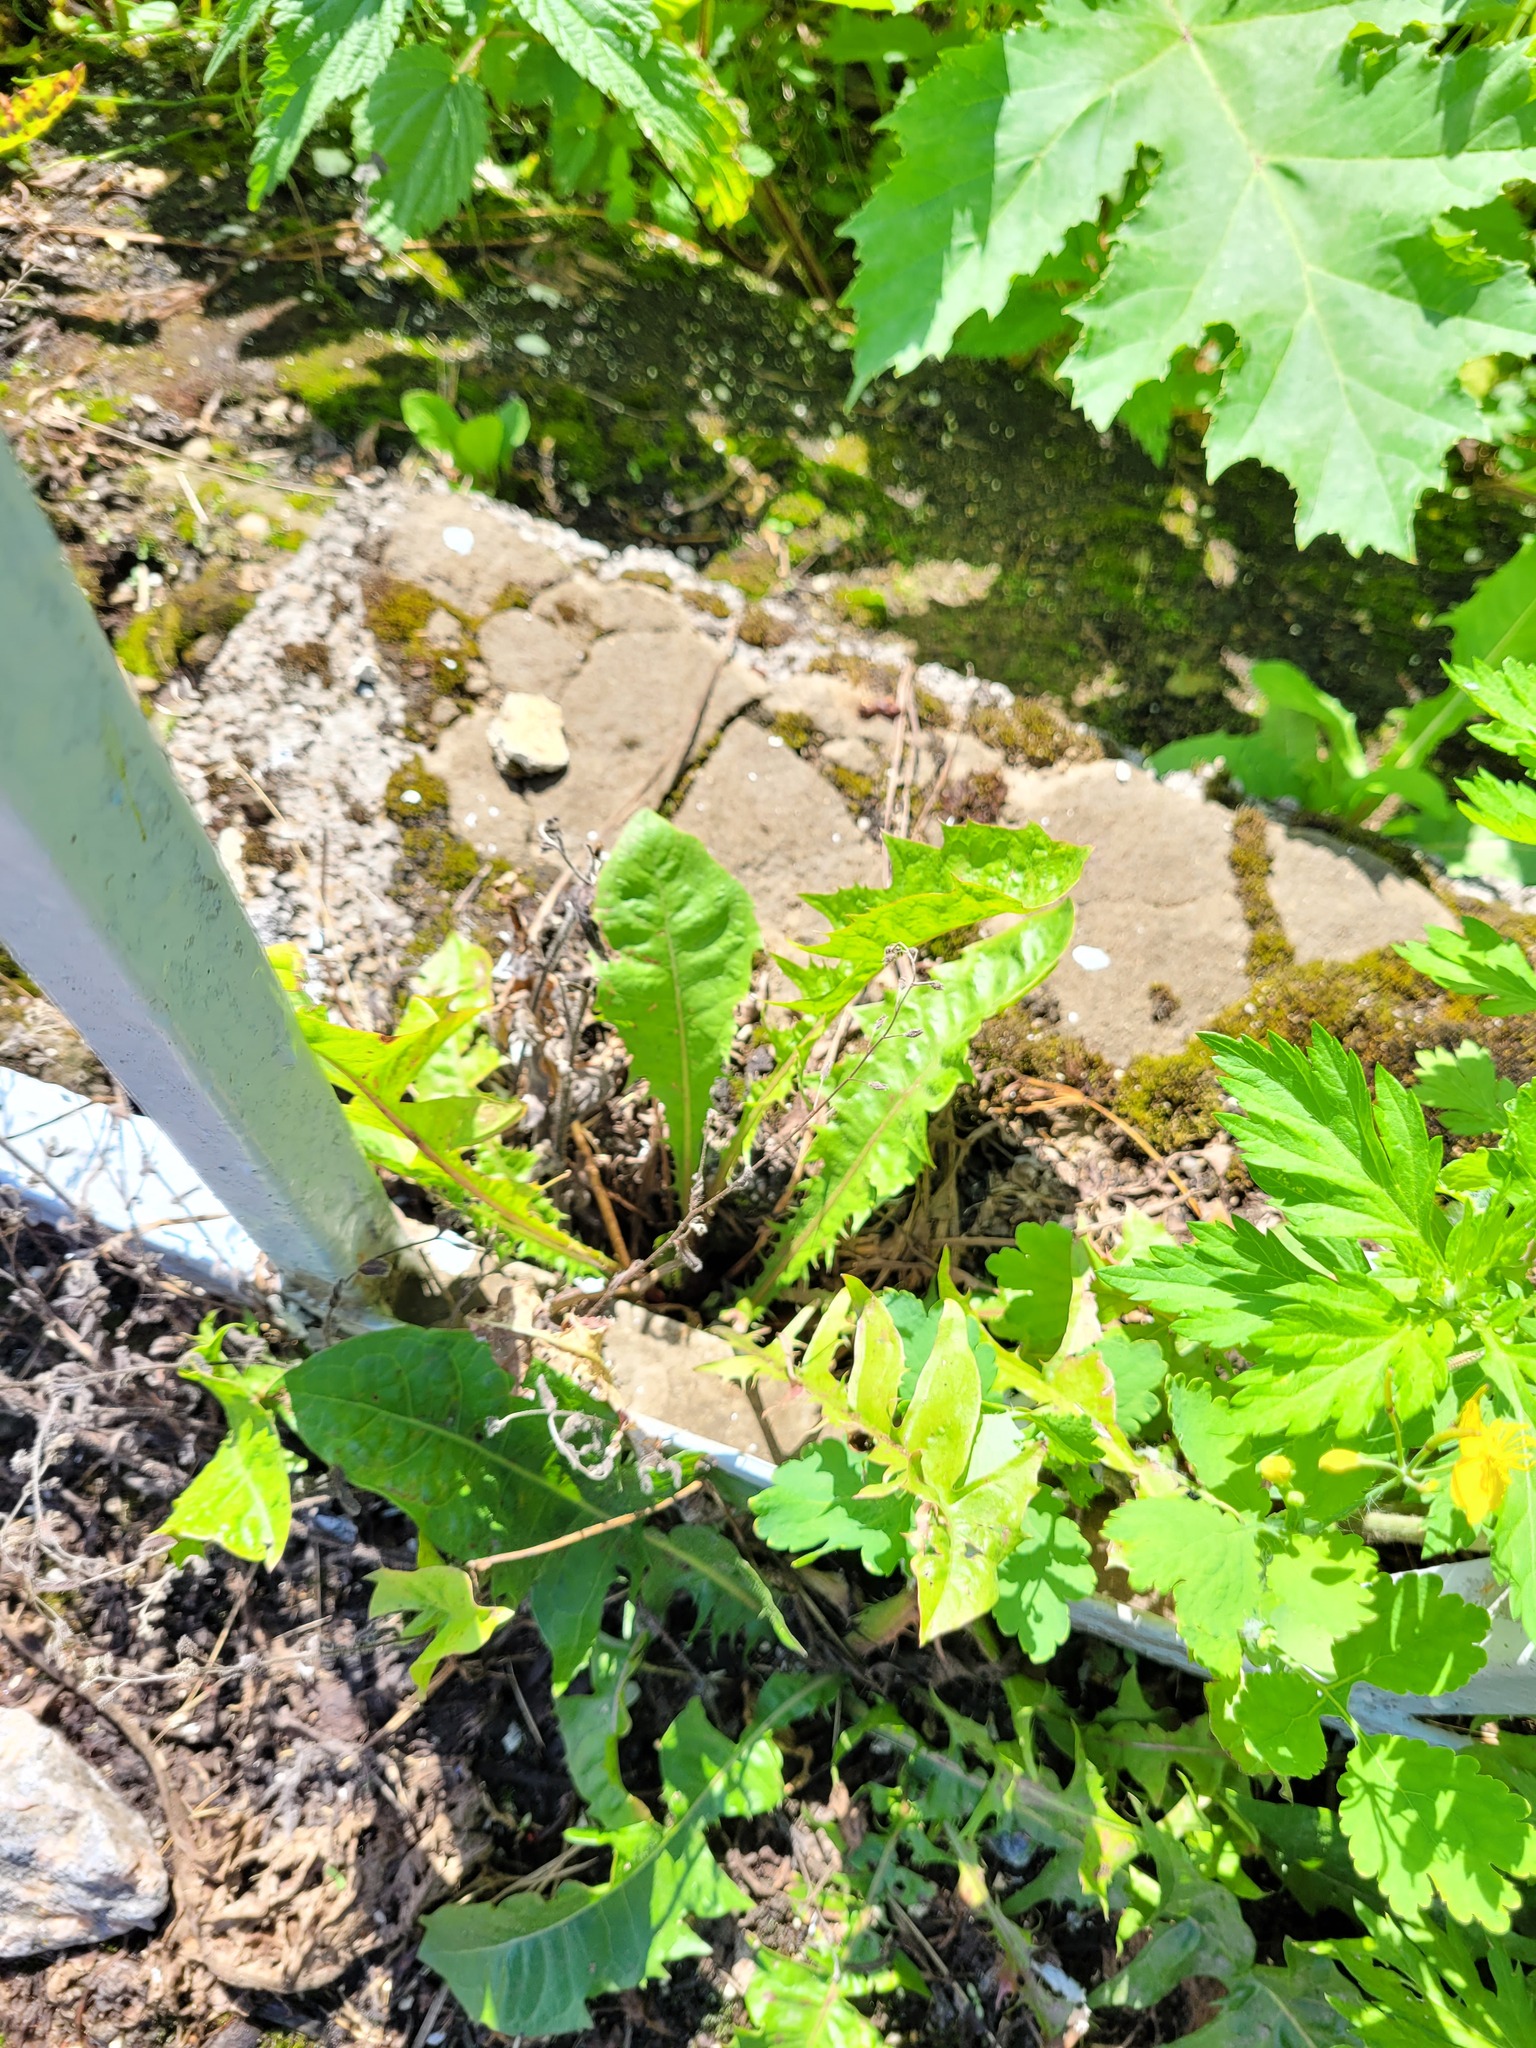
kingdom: Plantae
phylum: Tracheophyta
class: Magnoliopsida
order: Asterales
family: Asteraceae
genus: Taraxacum
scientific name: Taraxacum officinale
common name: Common dandelion
